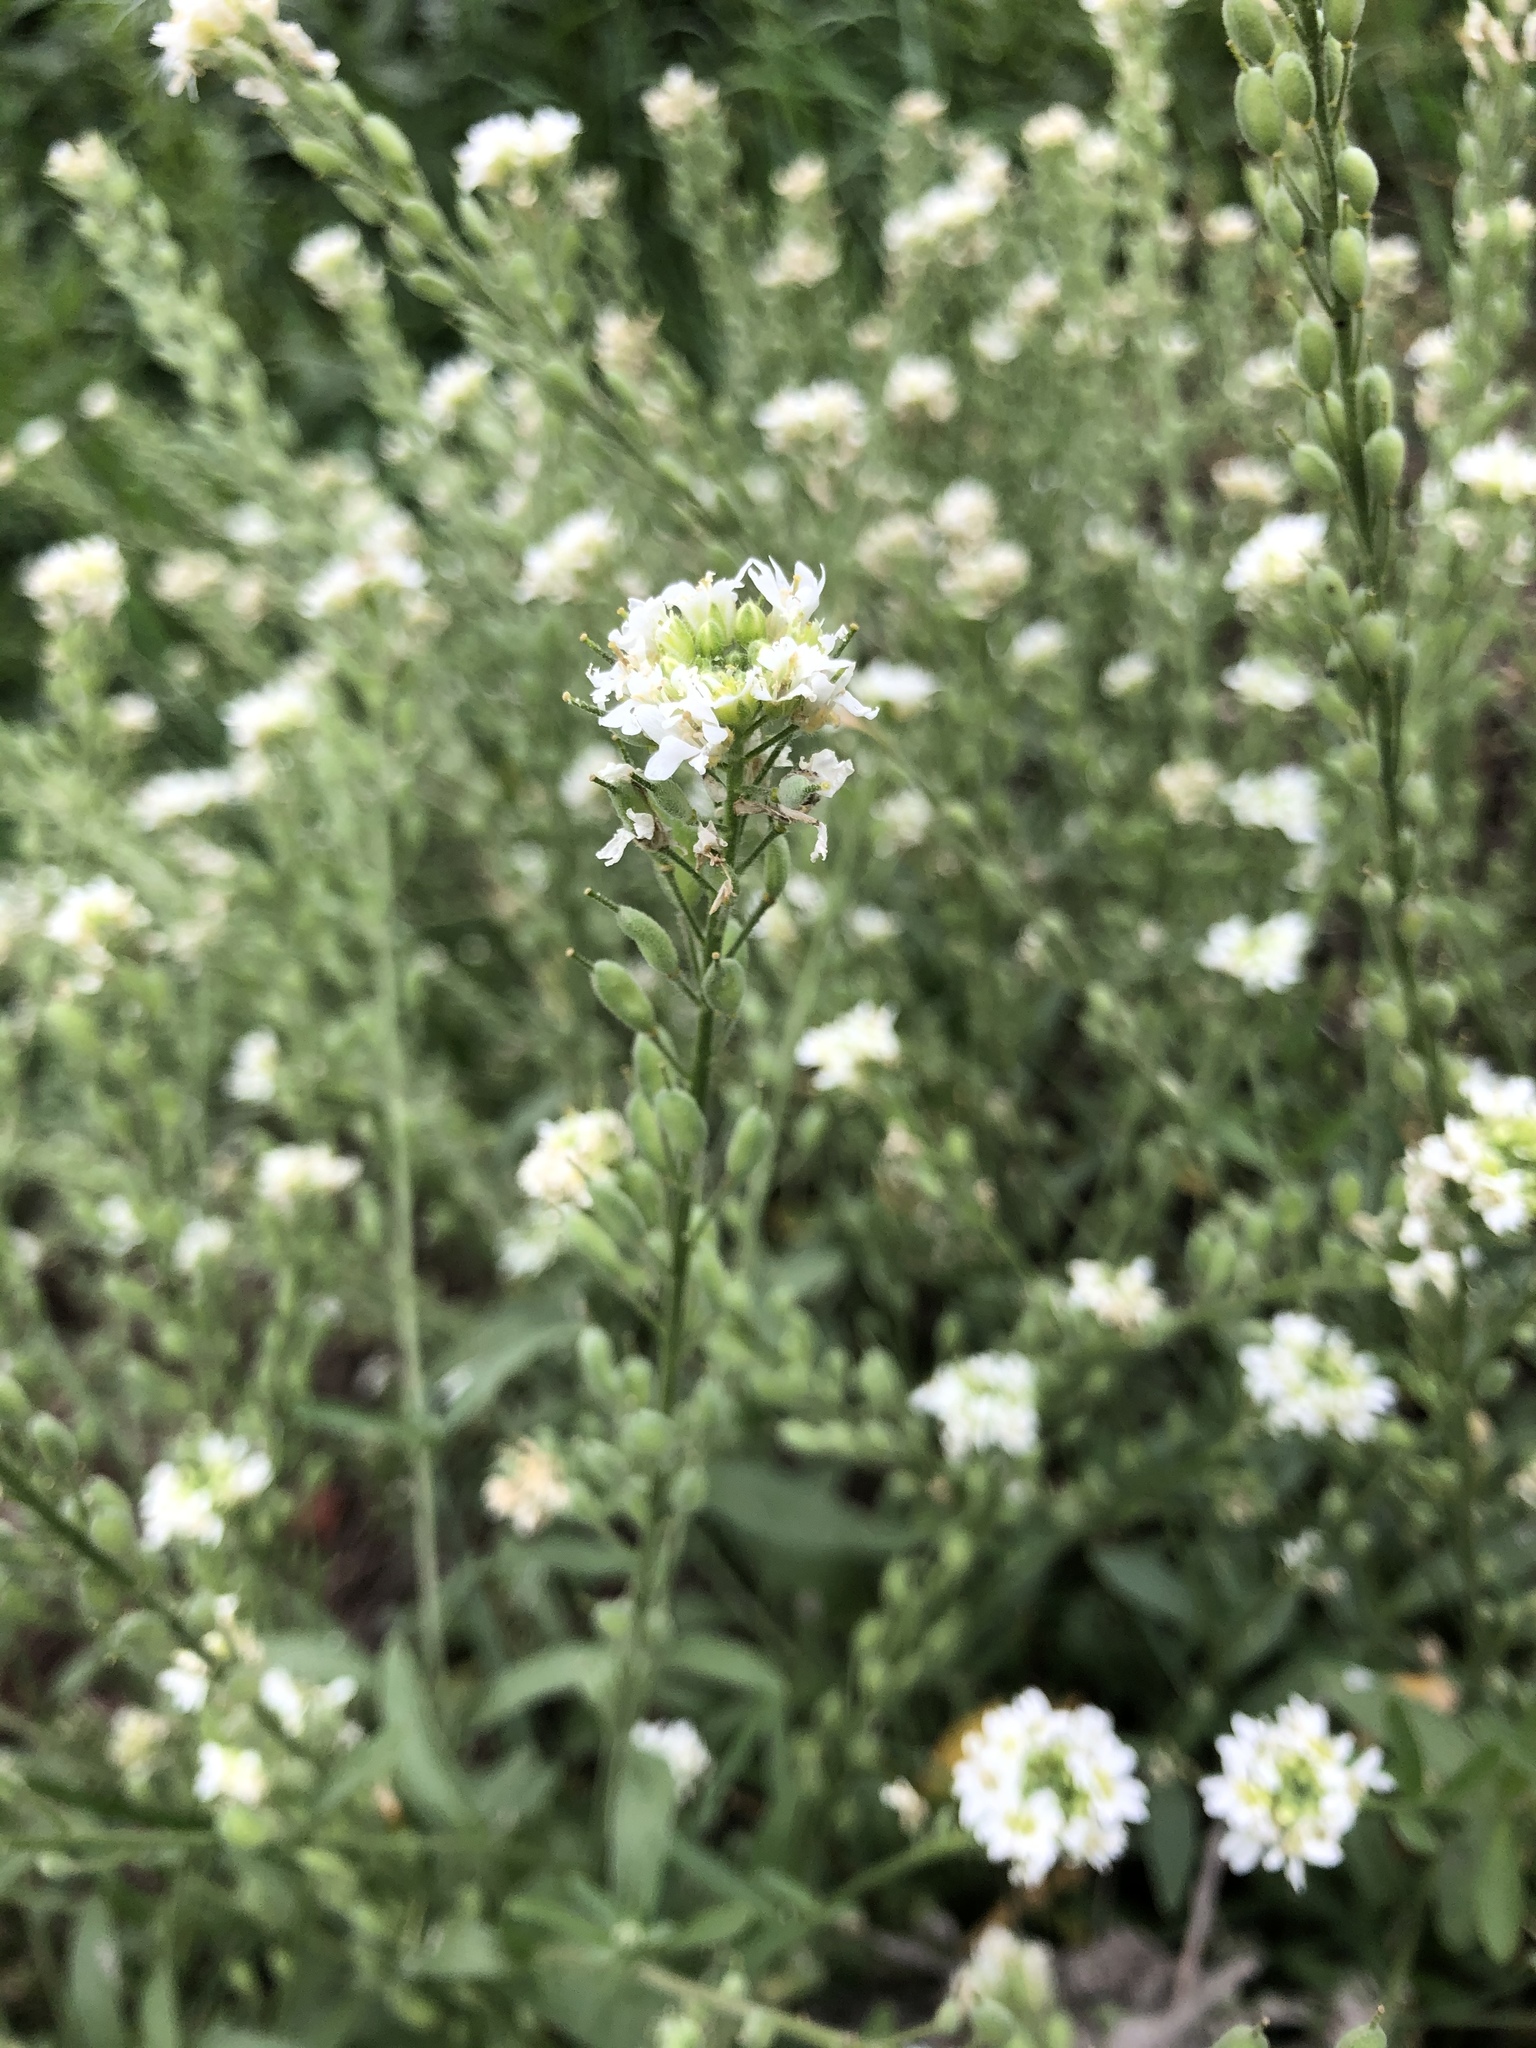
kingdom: Plantae
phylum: Tracheophyta
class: Magnoliopsida
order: Brassicales
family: Brassicaceae
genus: Berteroa
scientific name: Berteroa incana
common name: Hoary alison
